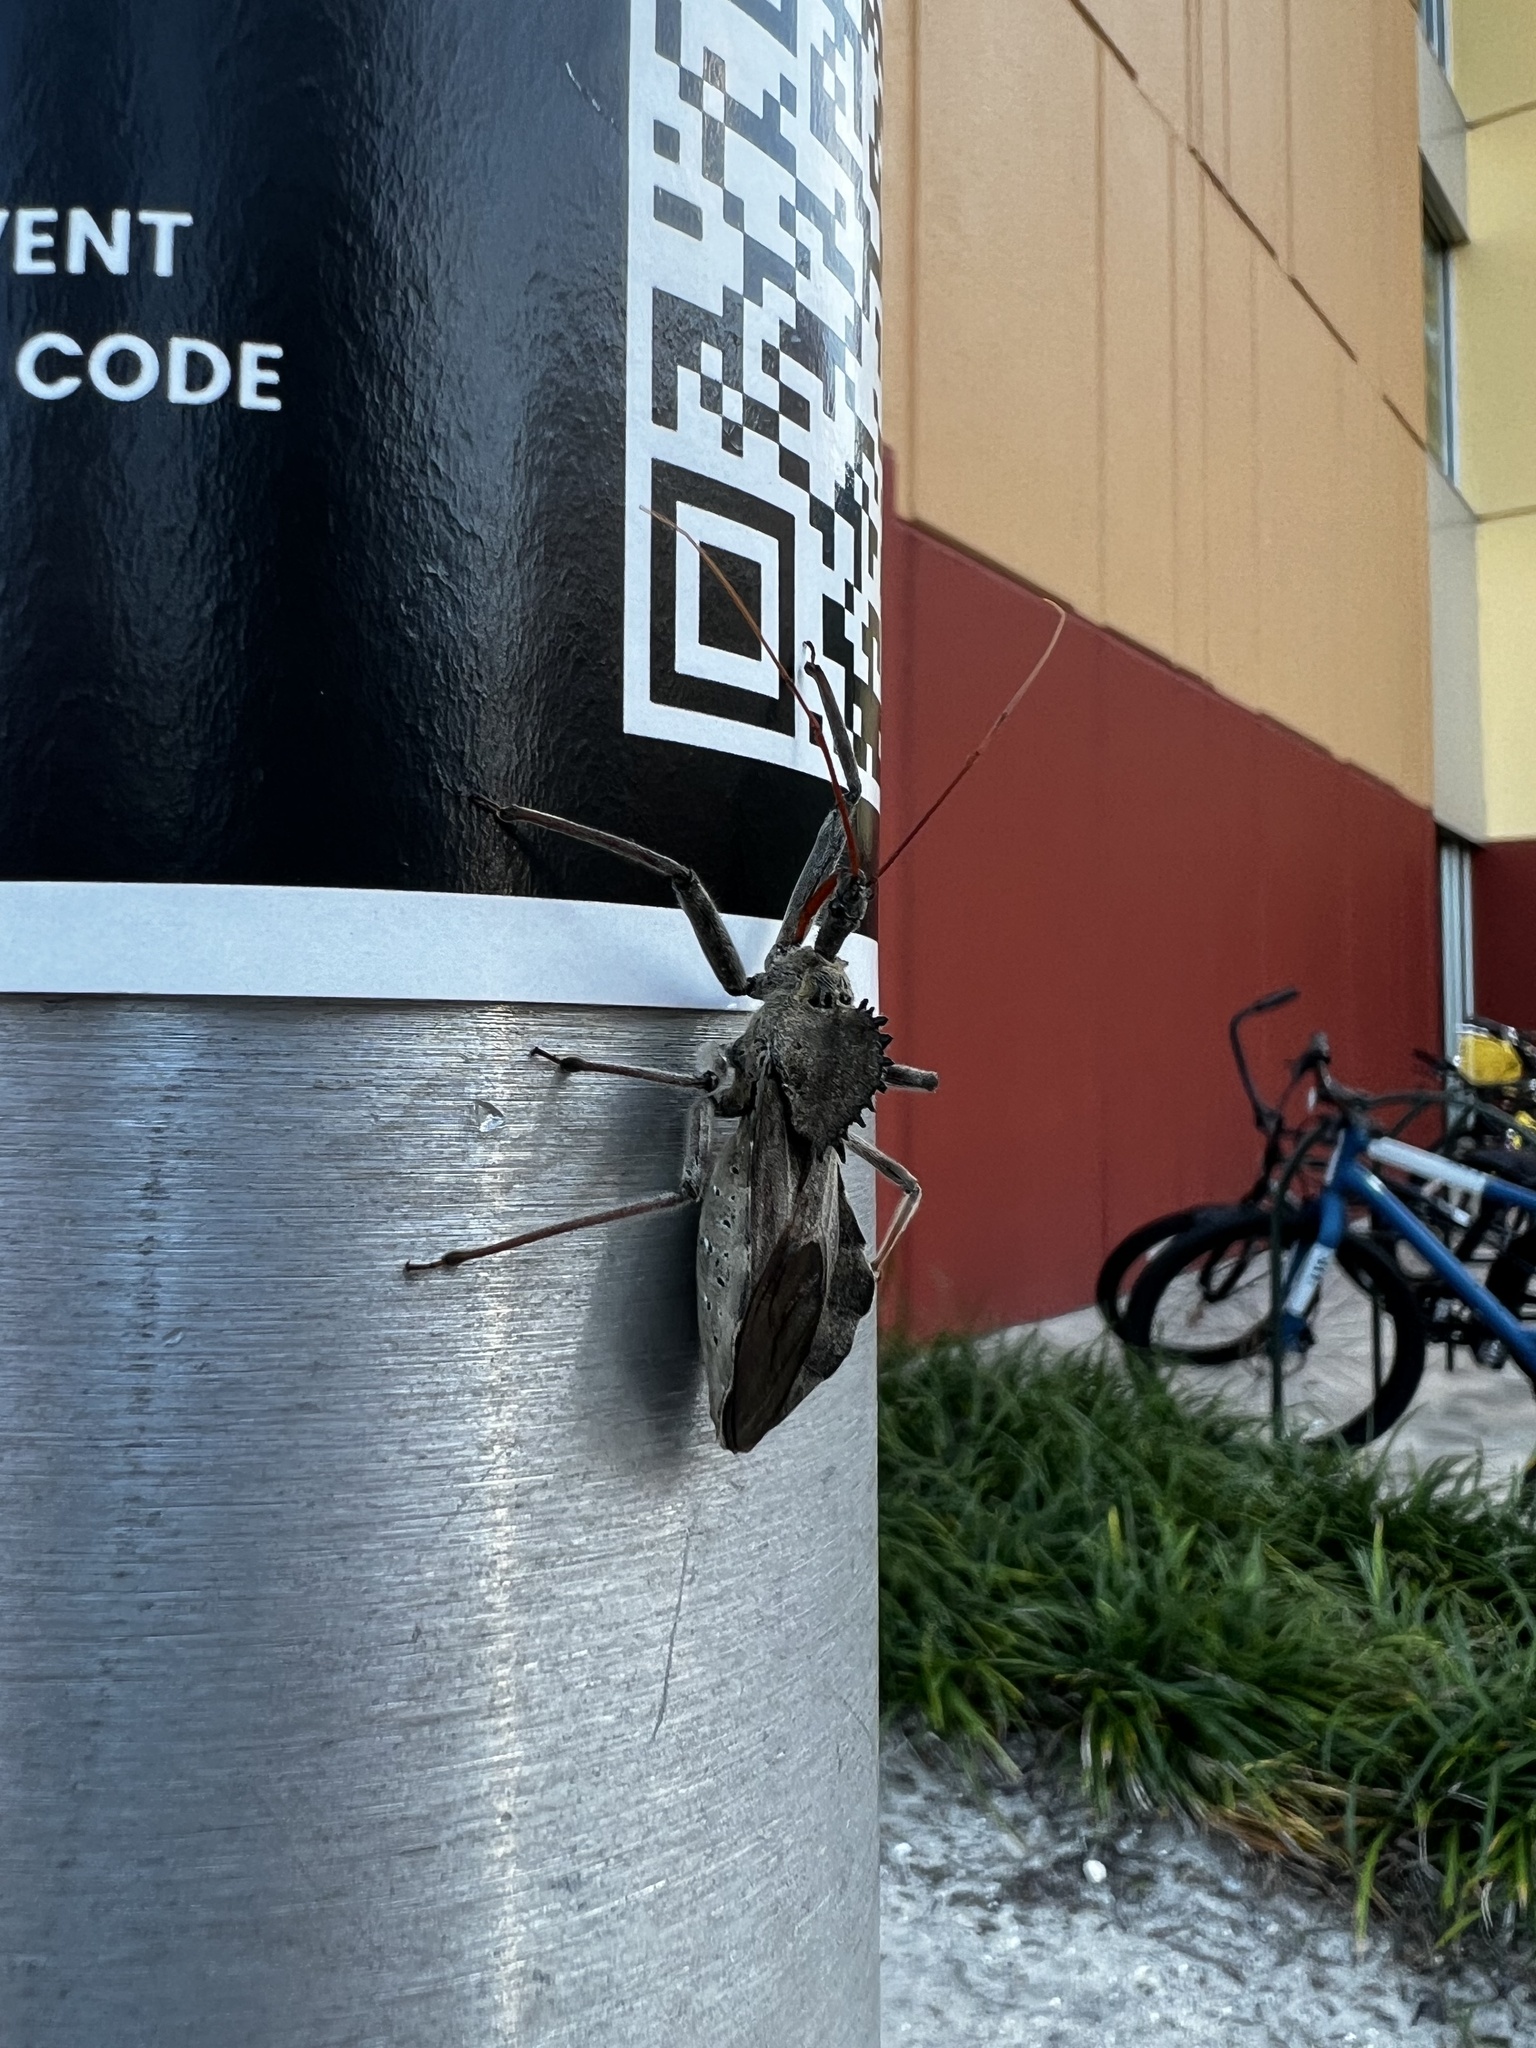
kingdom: Animalia
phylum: Arthropoda
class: Insecta
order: Hemiptera
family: Reduviidae
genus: Arilus
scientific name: Arilus cristatus
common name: North american wheel bug
